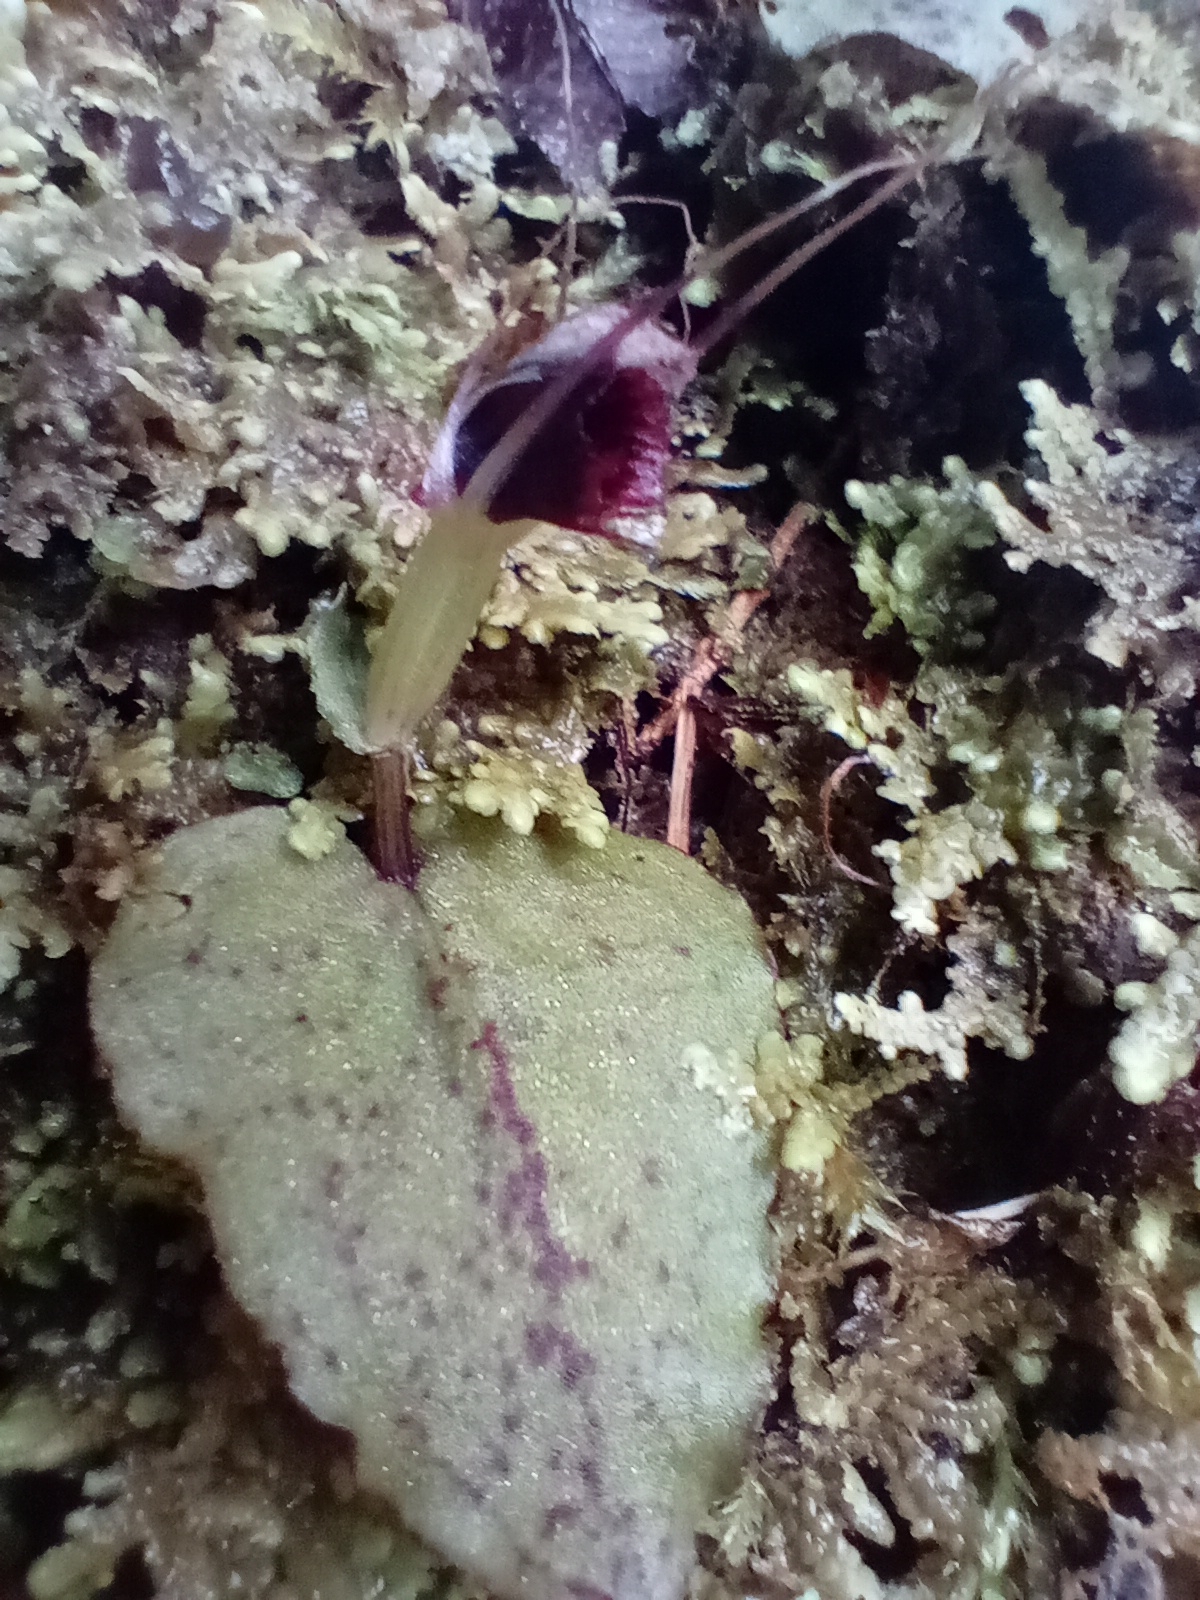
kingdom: Plantae
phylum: Tracheophyta
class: Liliopsida
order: Asparagales
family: Orchidaceae
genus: Corybas
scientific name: Corybas oblongus
